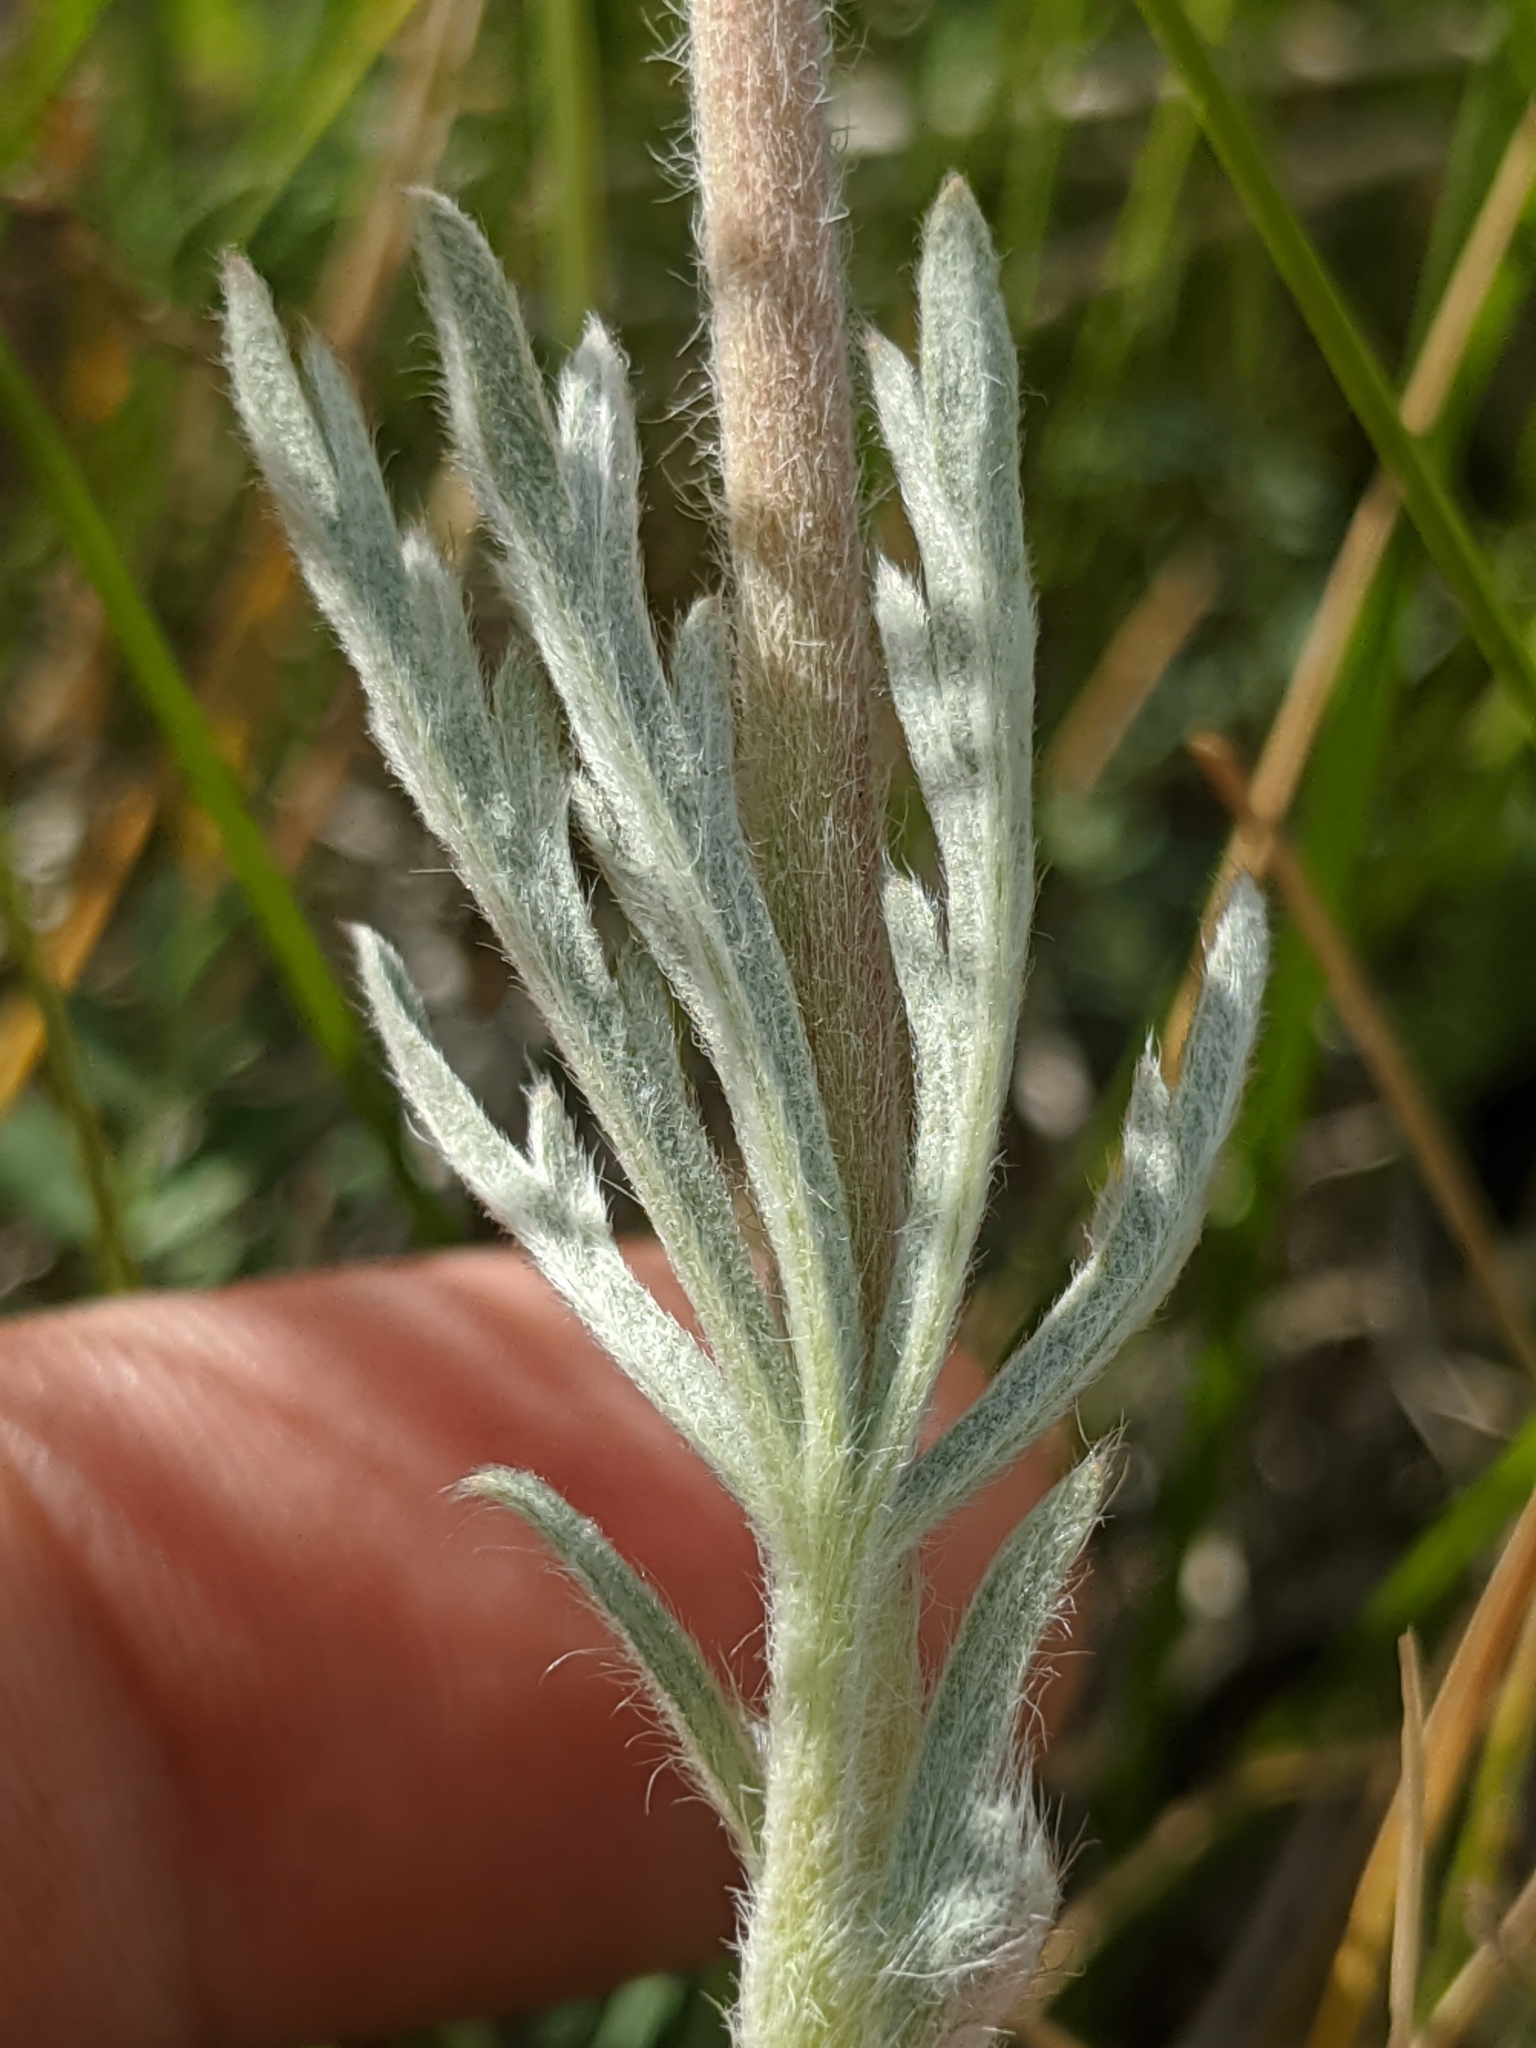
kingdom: Plantae
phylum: Tracheophyta
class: Magnoliopsida
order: Rosales
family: Rosaceae
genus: Potentilla
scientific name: Potentilla gracilis
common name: Graceful cinquefoil
